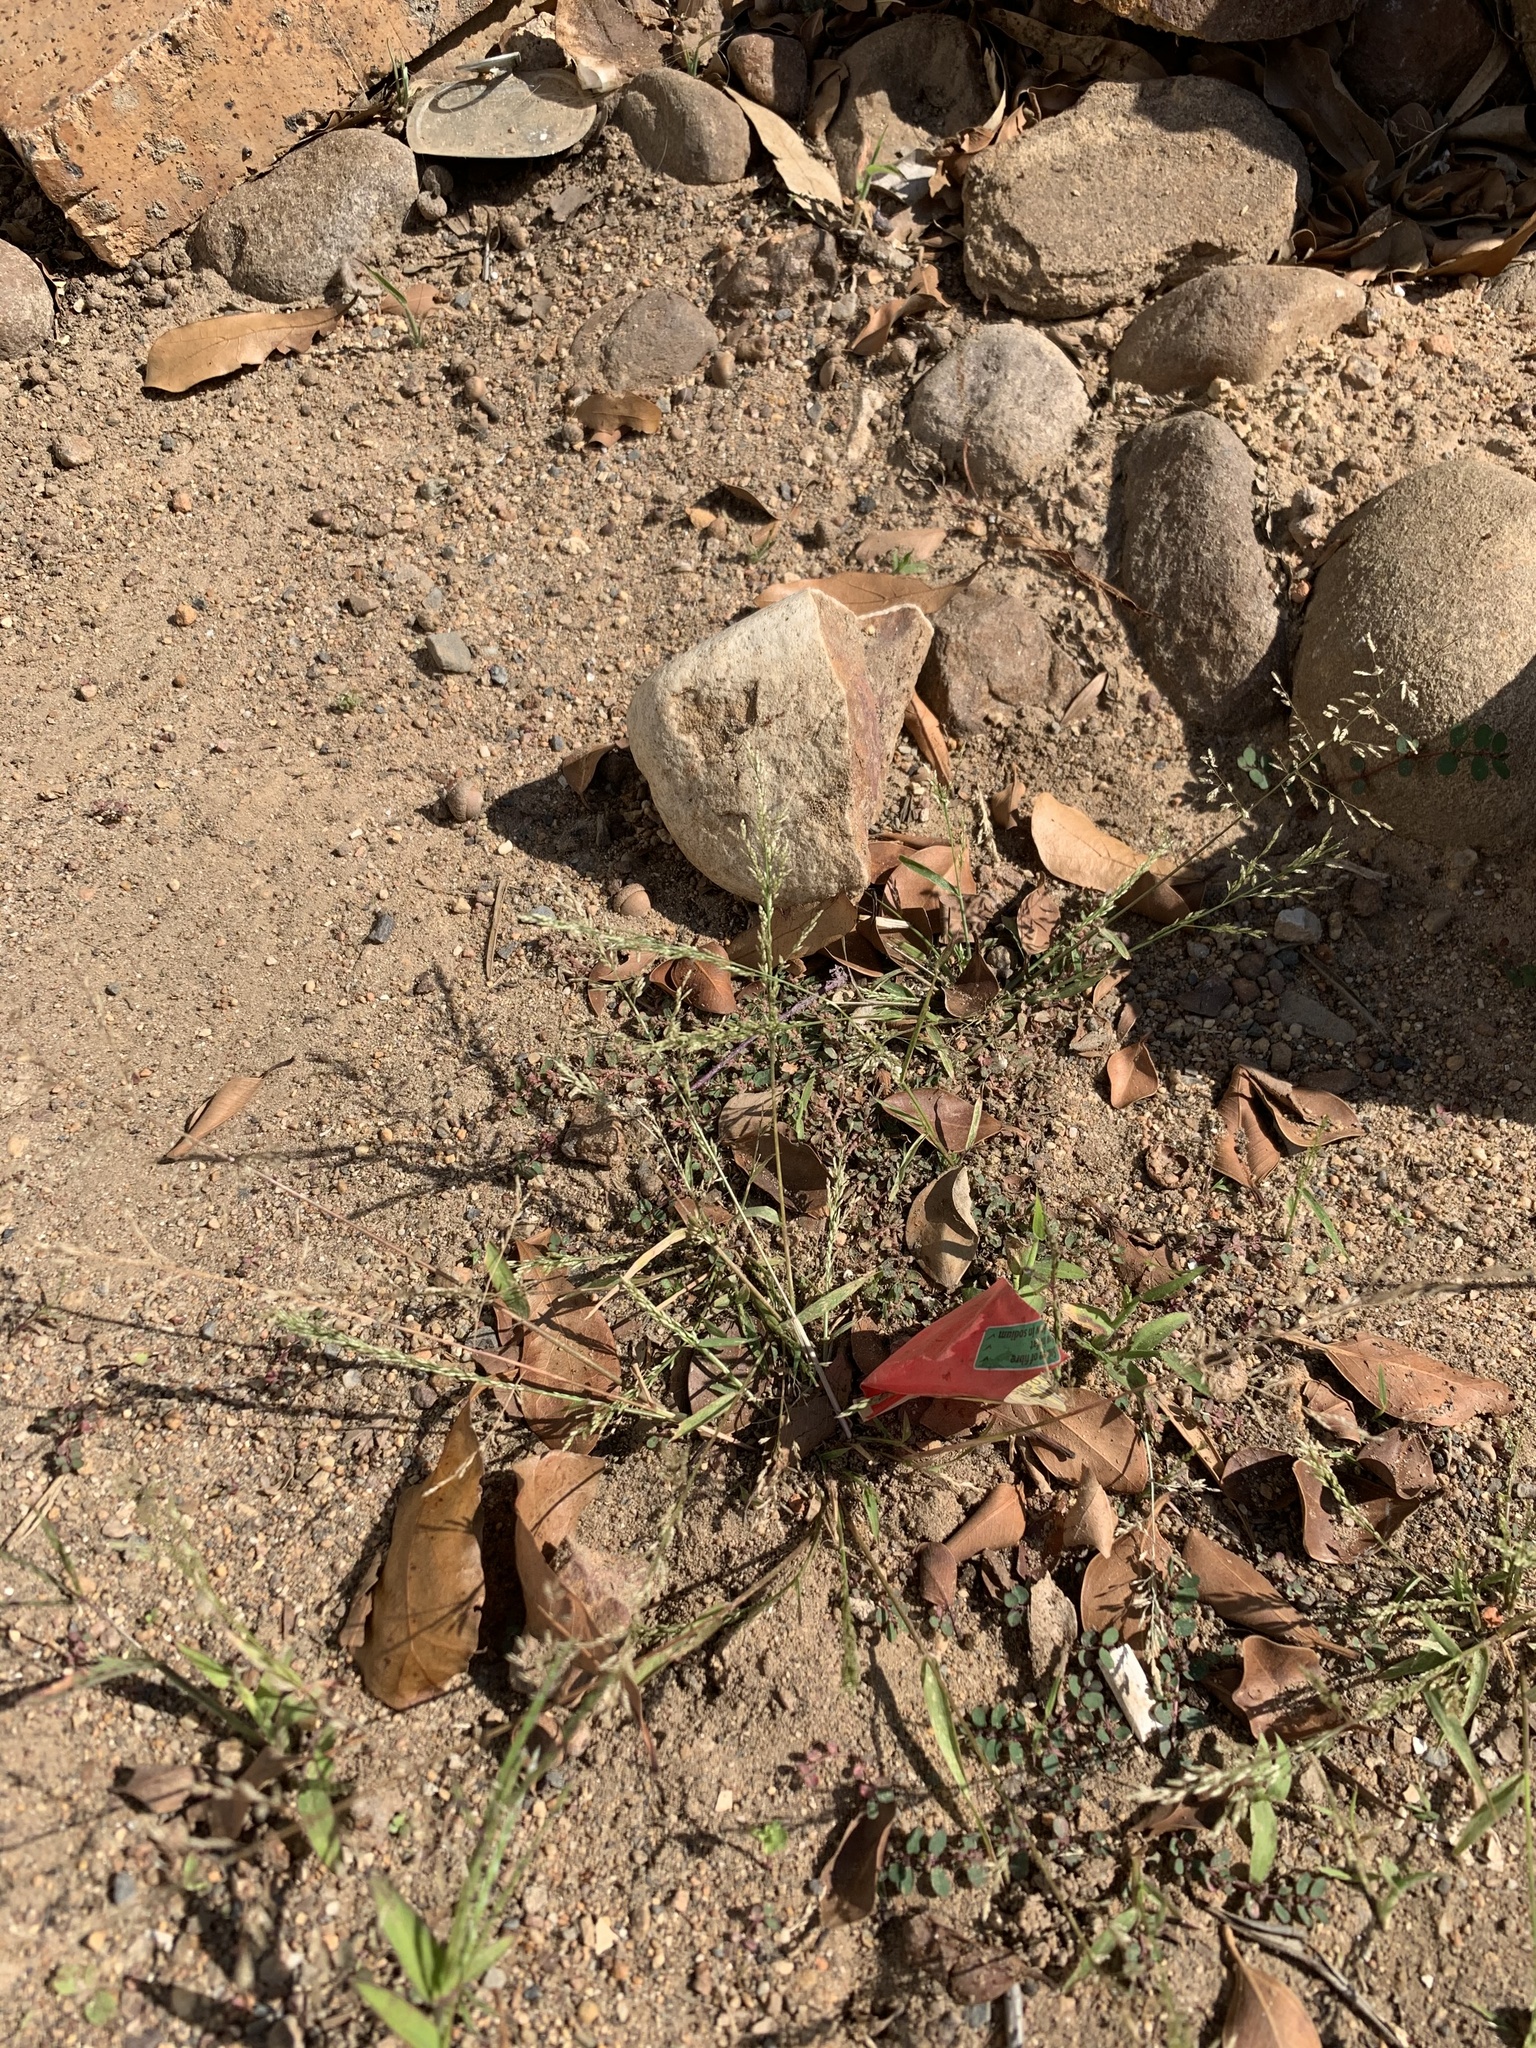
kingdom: Plantae
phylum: Tracheophyta
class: Liliopsida
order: Poales
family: Poaceae
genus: Poa
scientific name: Poa annua
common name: Annual bluegrass
